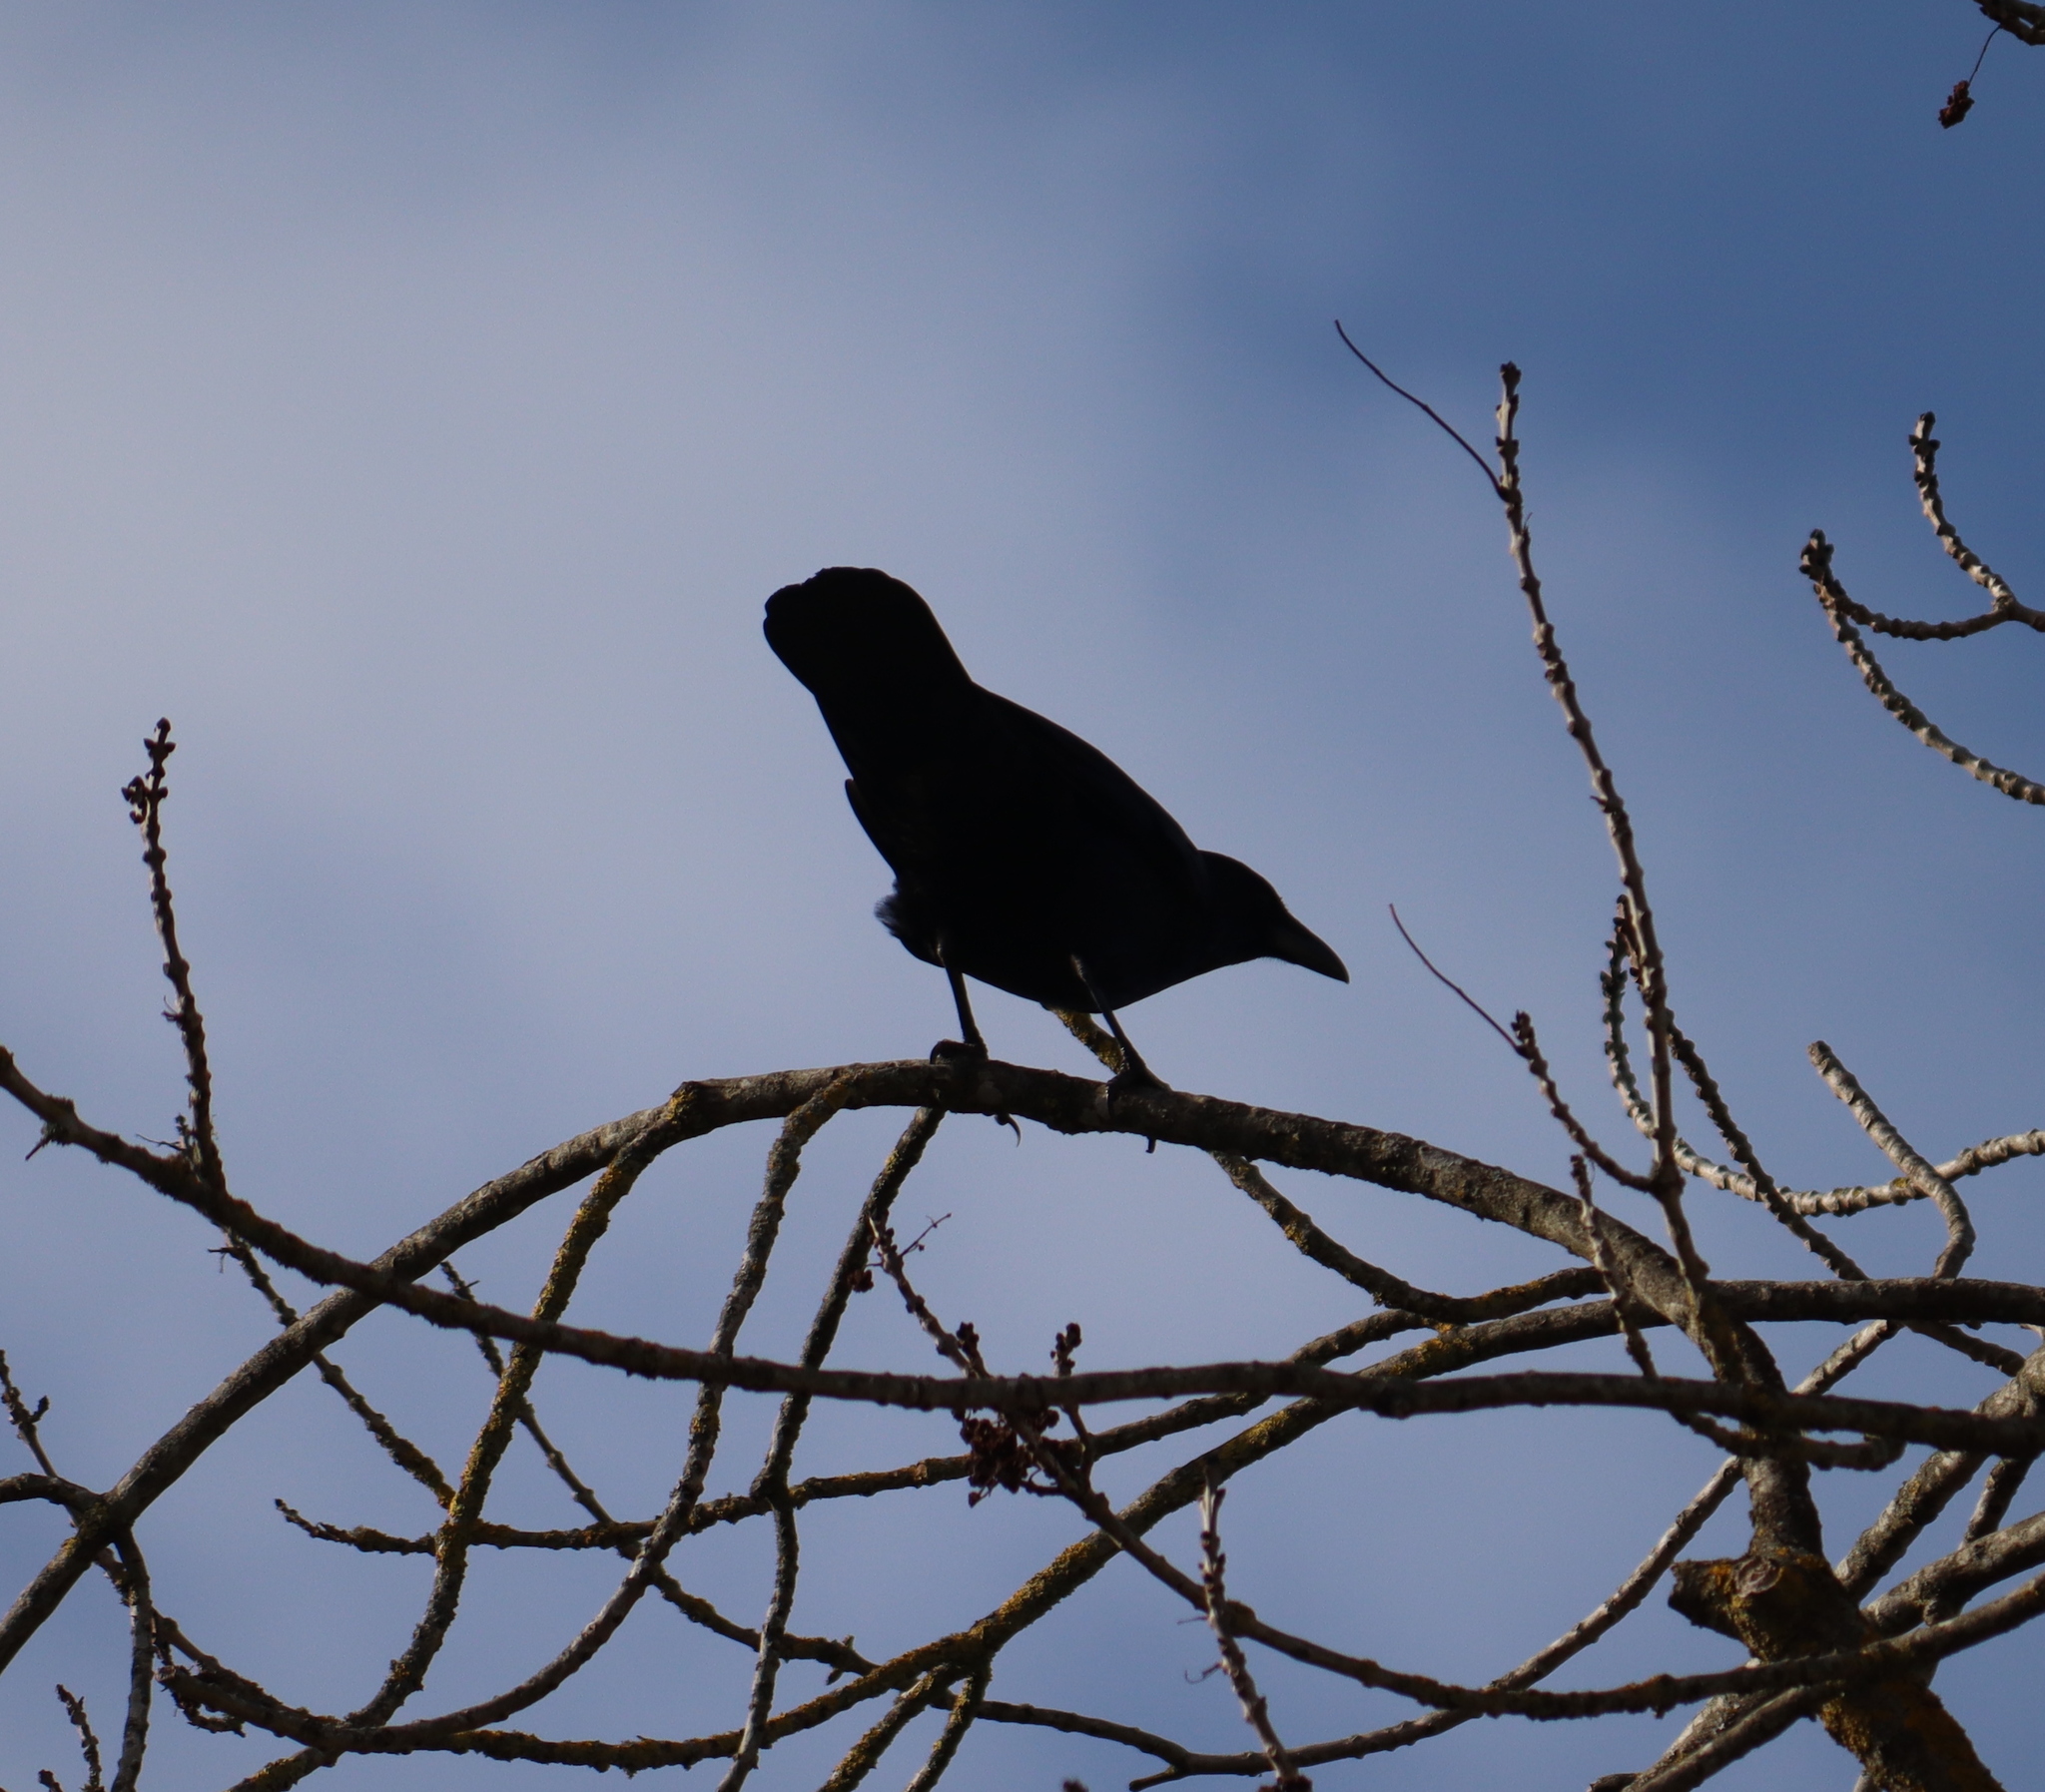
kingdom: Animalia
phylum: Chordata
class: Aves
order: Passeriformes
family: Corvidae
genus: Corvus
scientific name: Corvus corone
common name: Carrion crow
